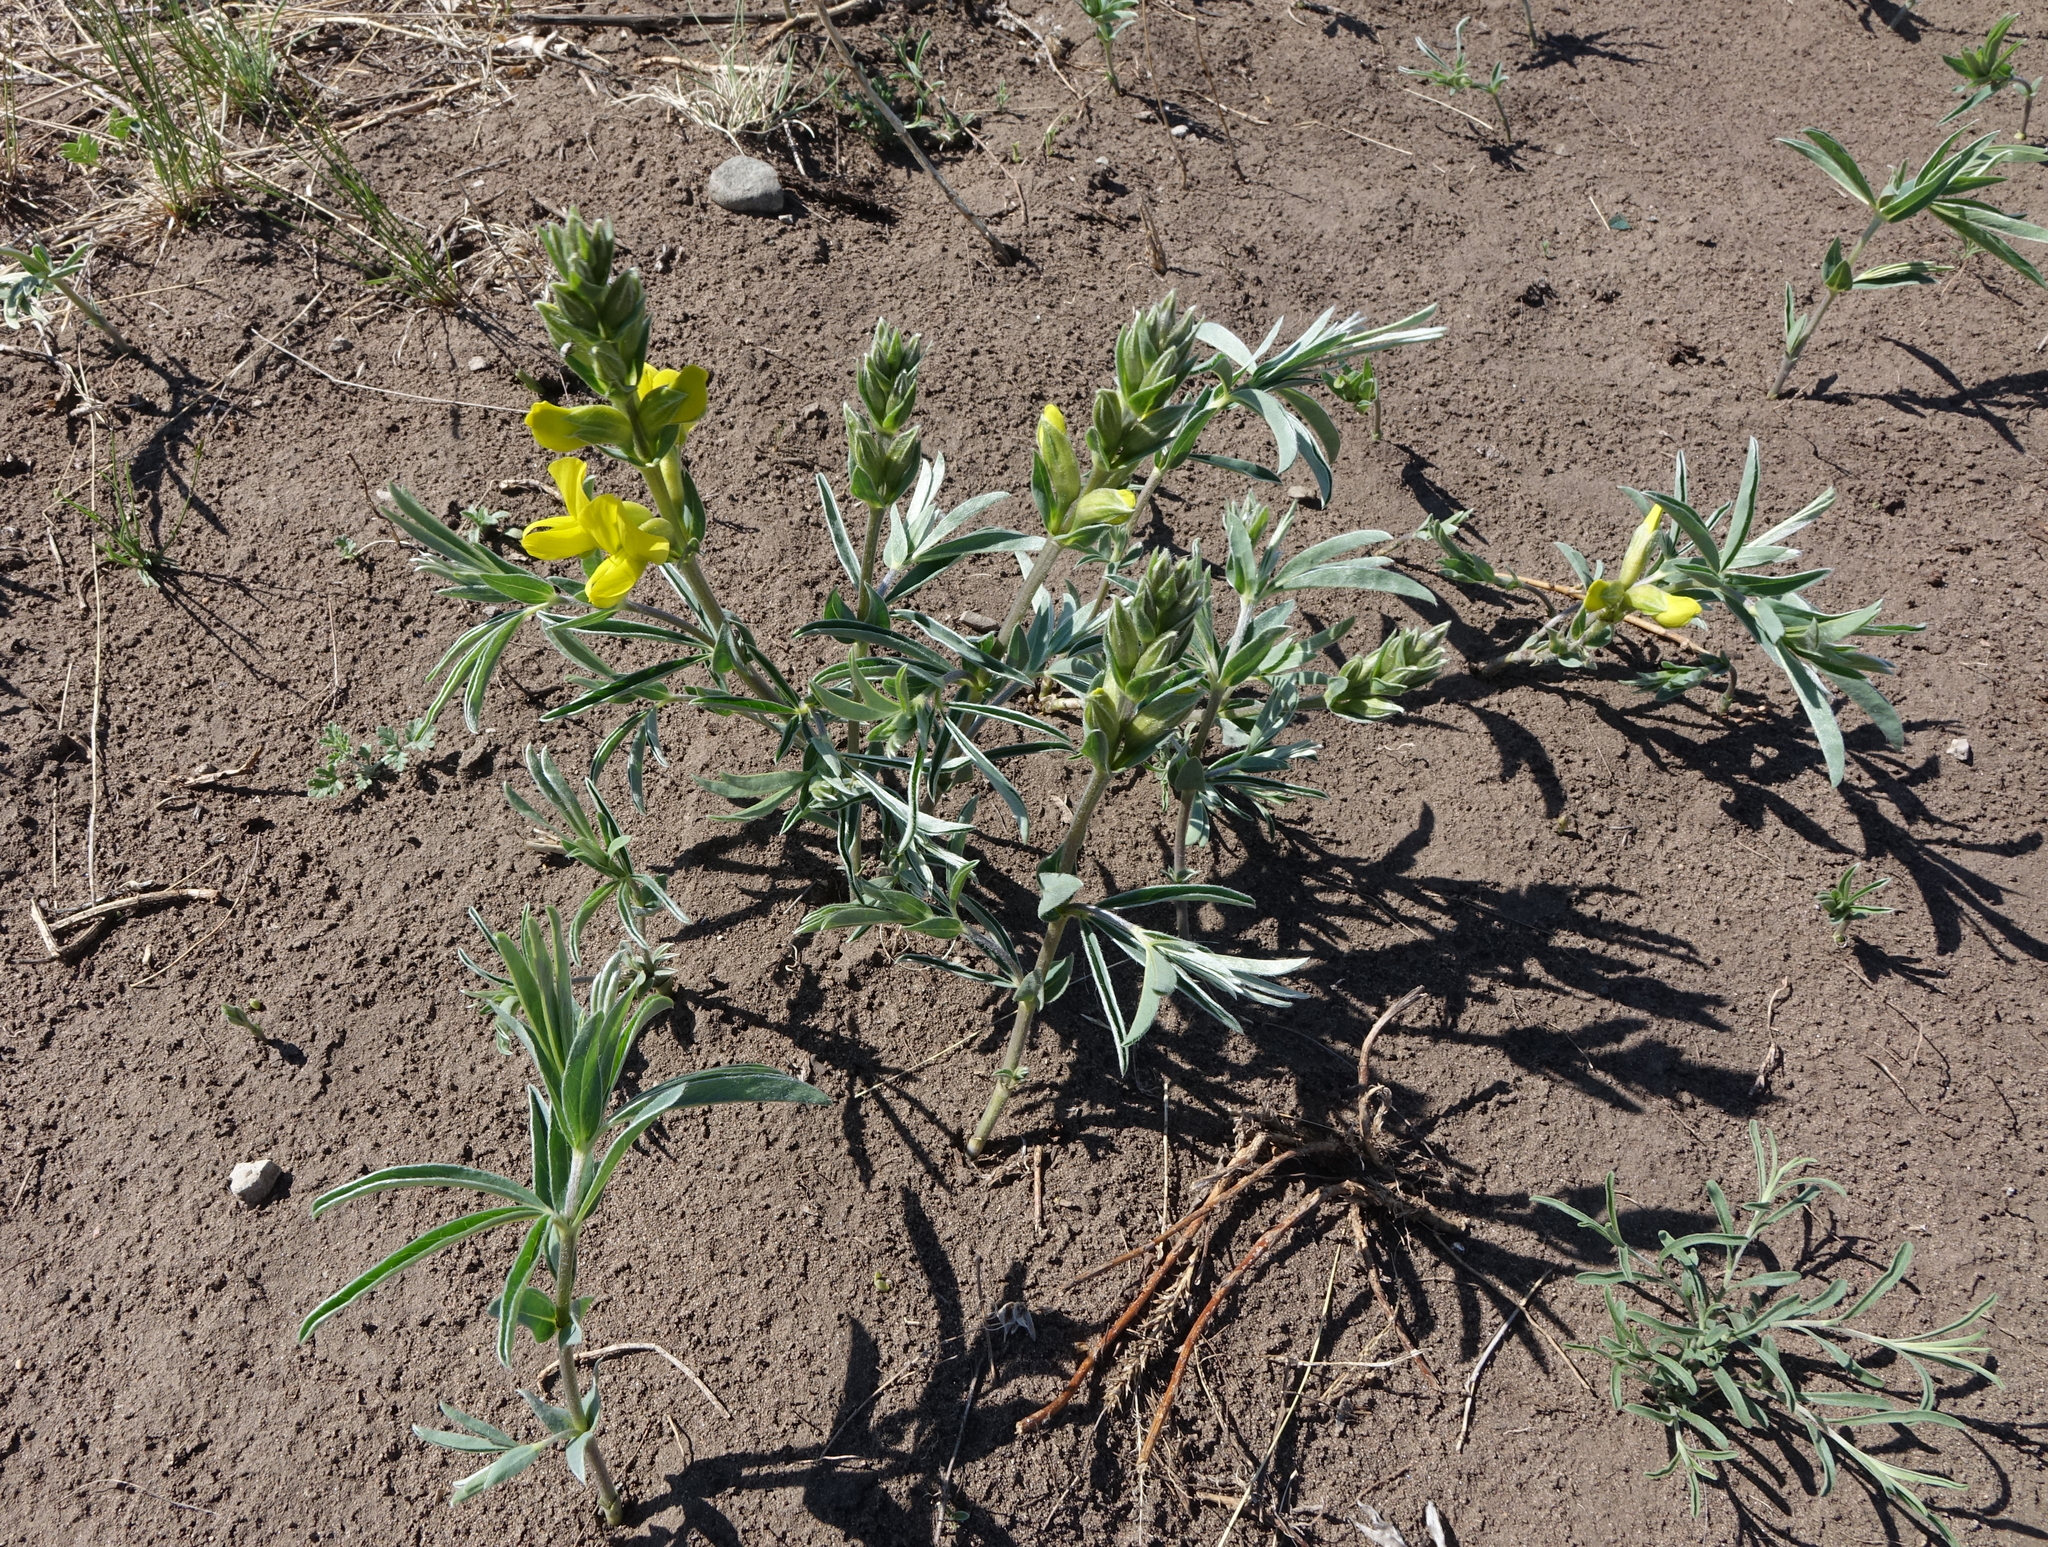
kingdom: Plantae
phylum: Tracheophyta
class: Magnoliopsida
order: Fabales
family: Fabaceae
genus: Thermopsis
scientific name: Thermopsis mongolica
